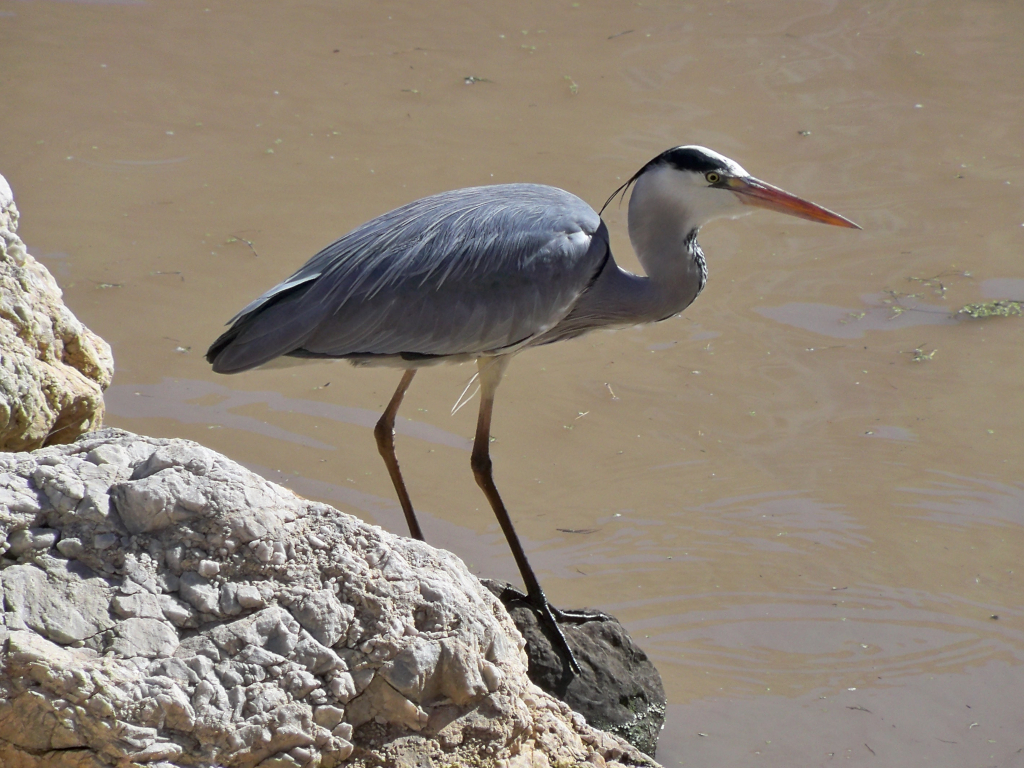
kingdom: Animalia
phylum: Chordata
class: Aves
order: Pelecaniformes
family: Ardeidae
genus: Ardea
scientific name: Ardea cinerea
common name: Grey heron
